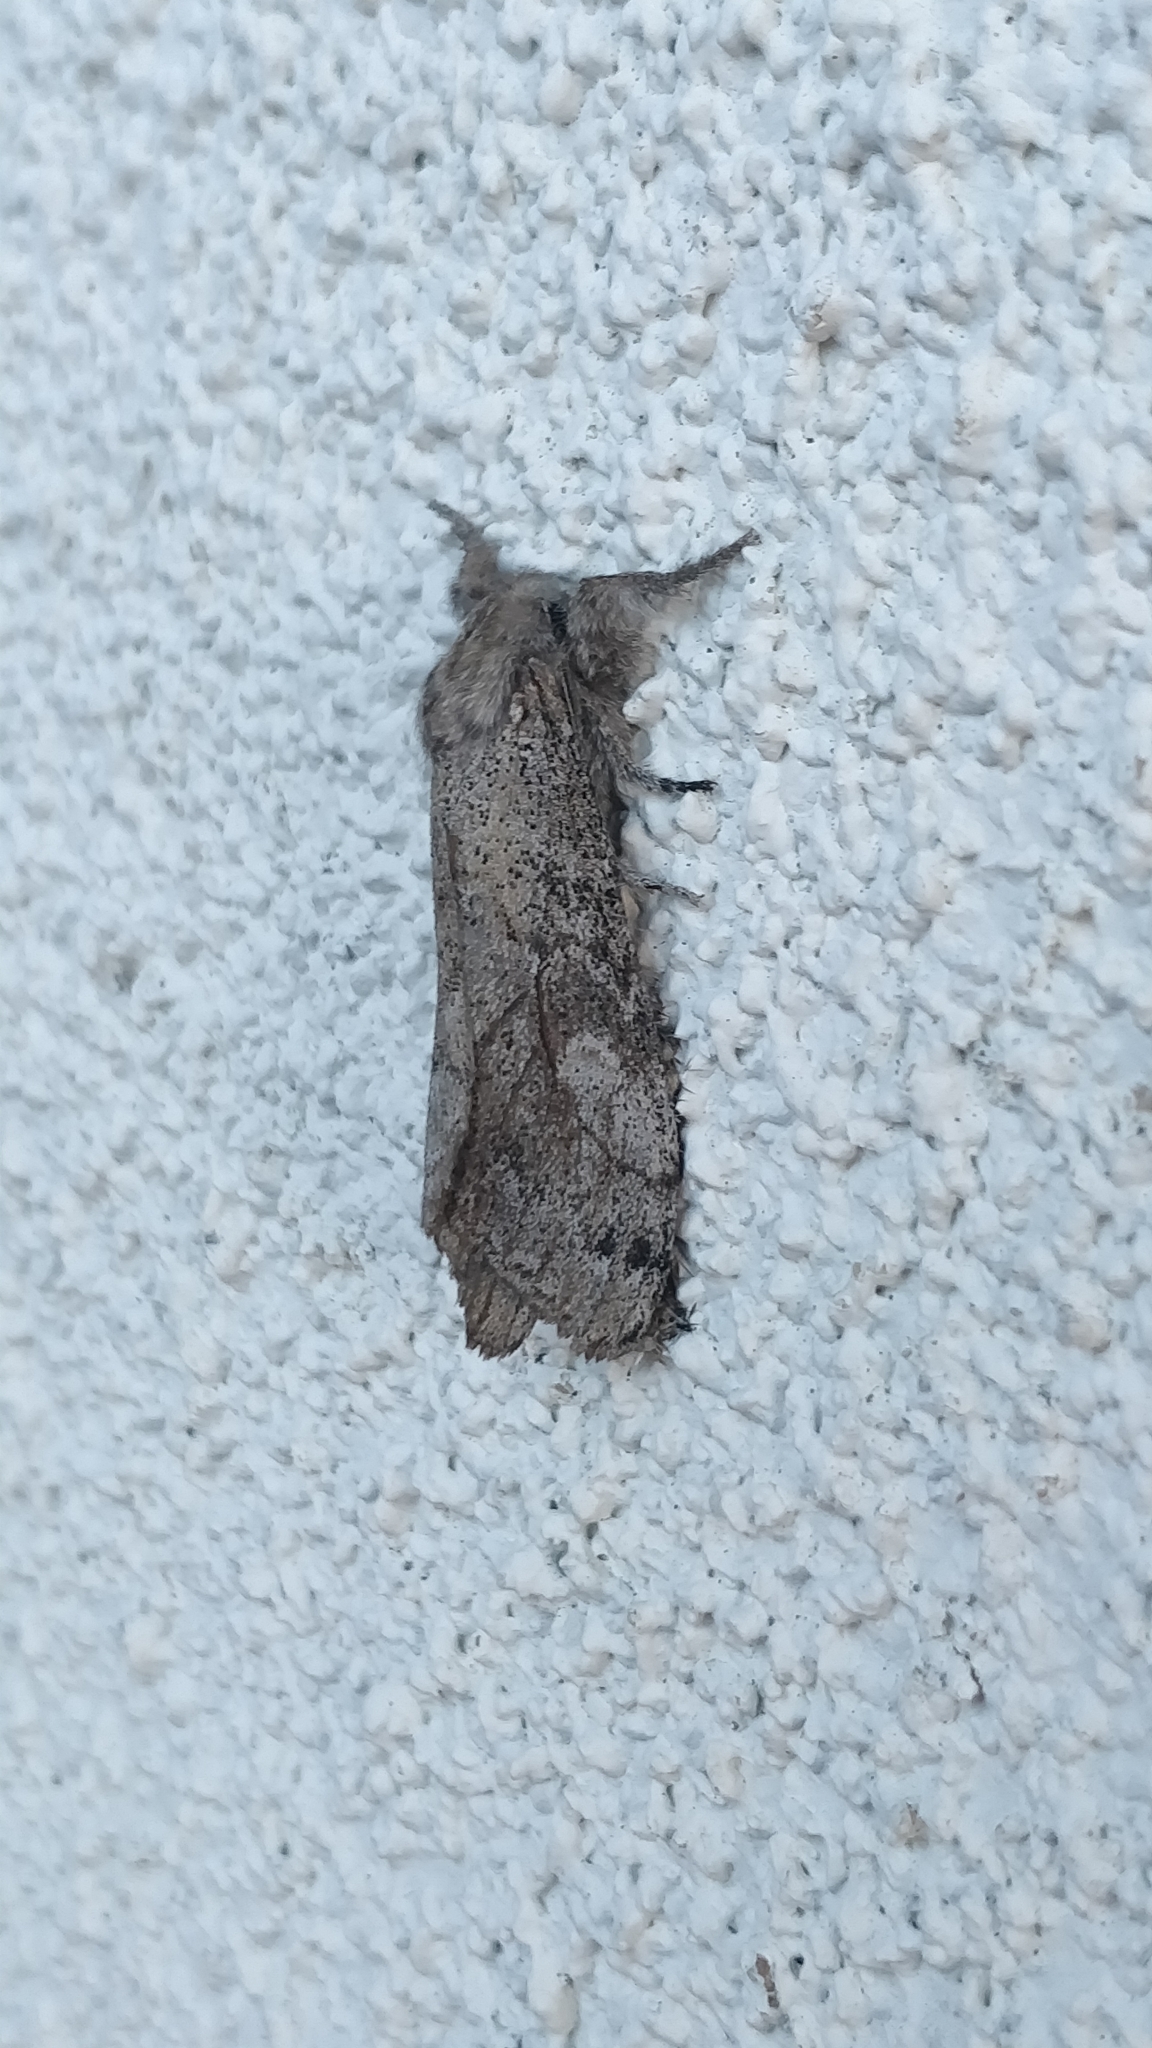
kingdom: Animalia
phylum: Arthropoda
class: Insecta
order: Lepidoptera
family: Erebidae
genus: Calliteara
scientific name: Calliteara
